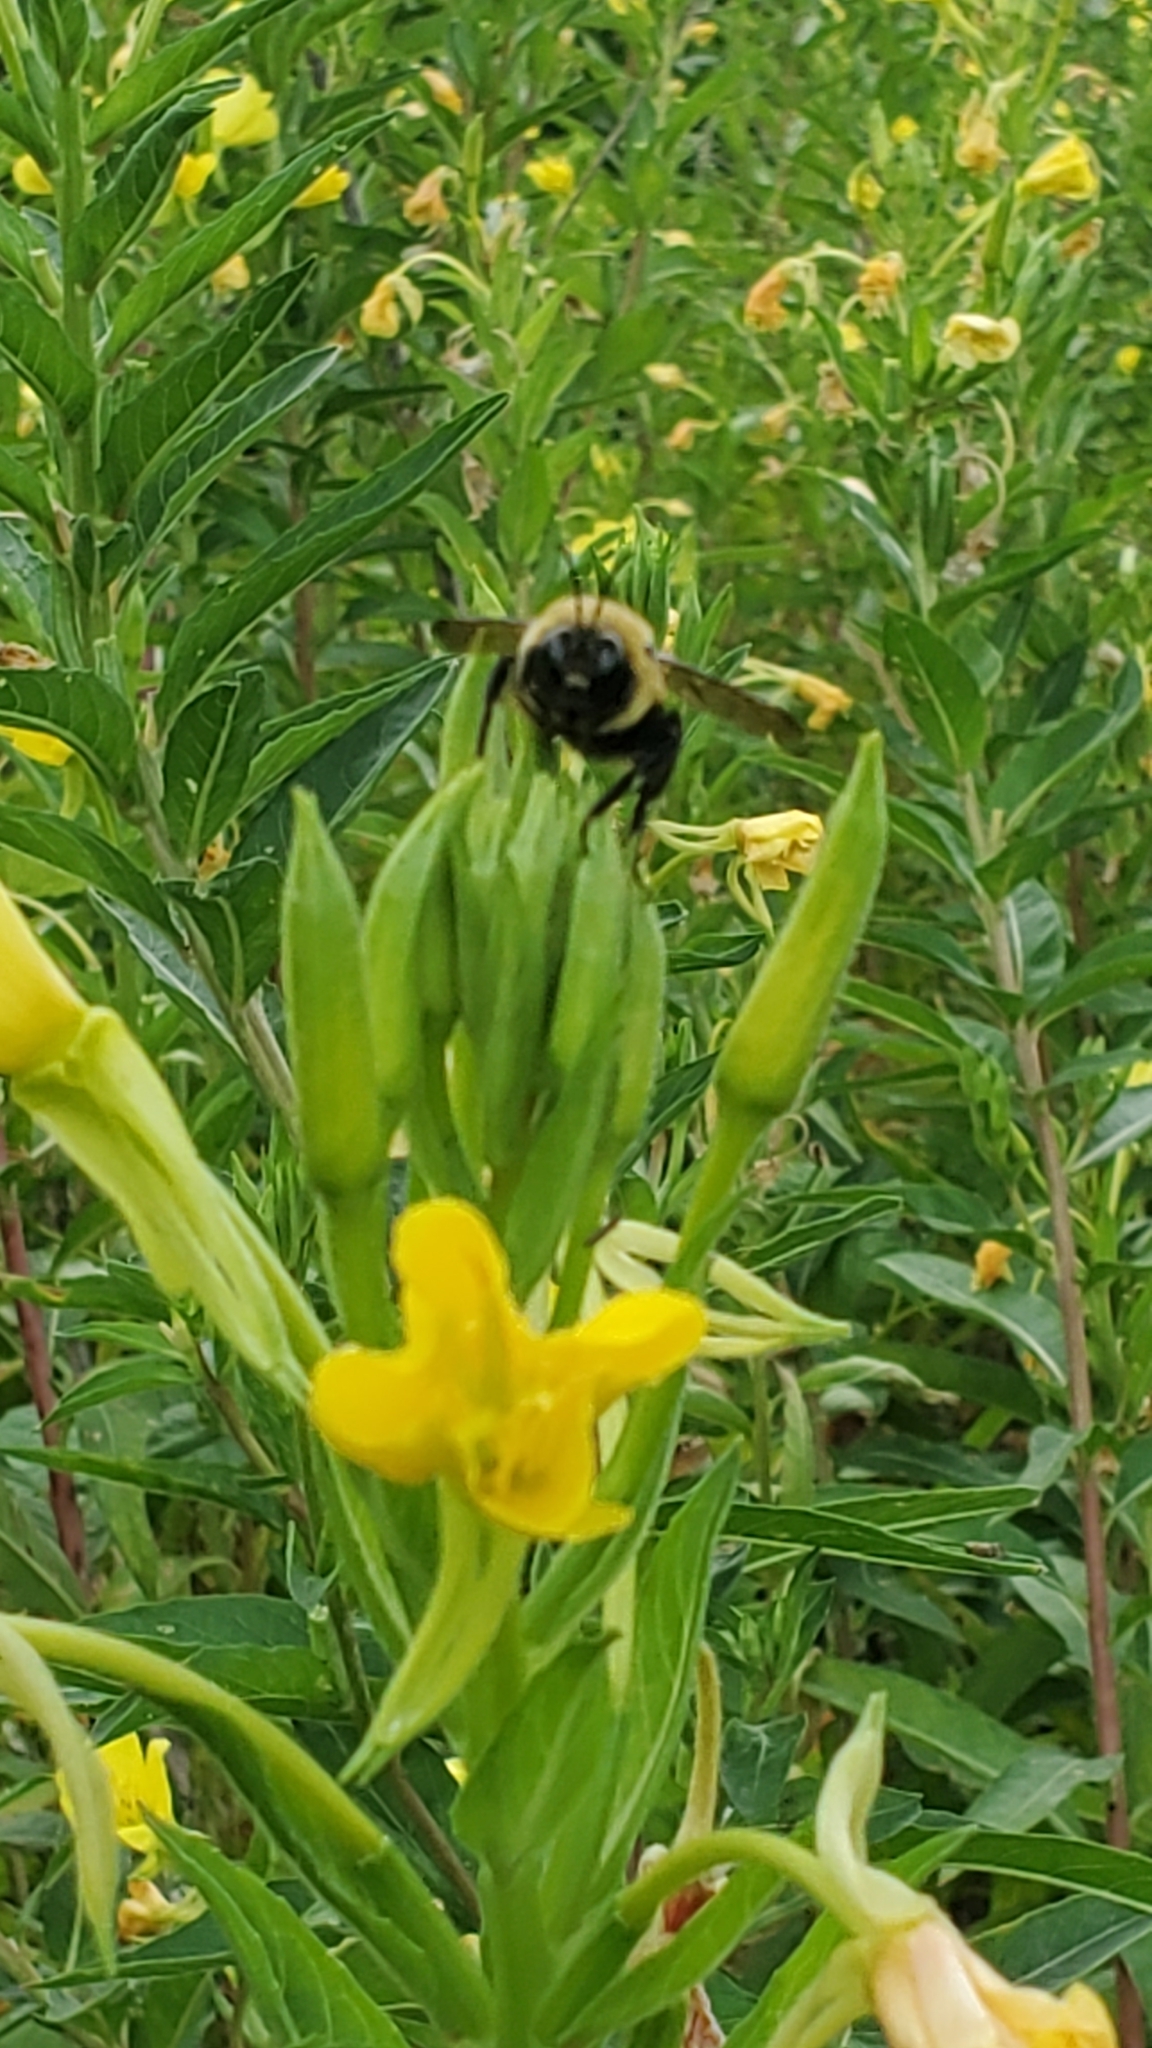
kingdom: Animalia
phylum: Arthropoda
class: Insecta
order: Hymenoptera
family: Apidae
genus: Bombus
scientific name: Bombus griseocollis
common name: Brown-belted bumble bee
